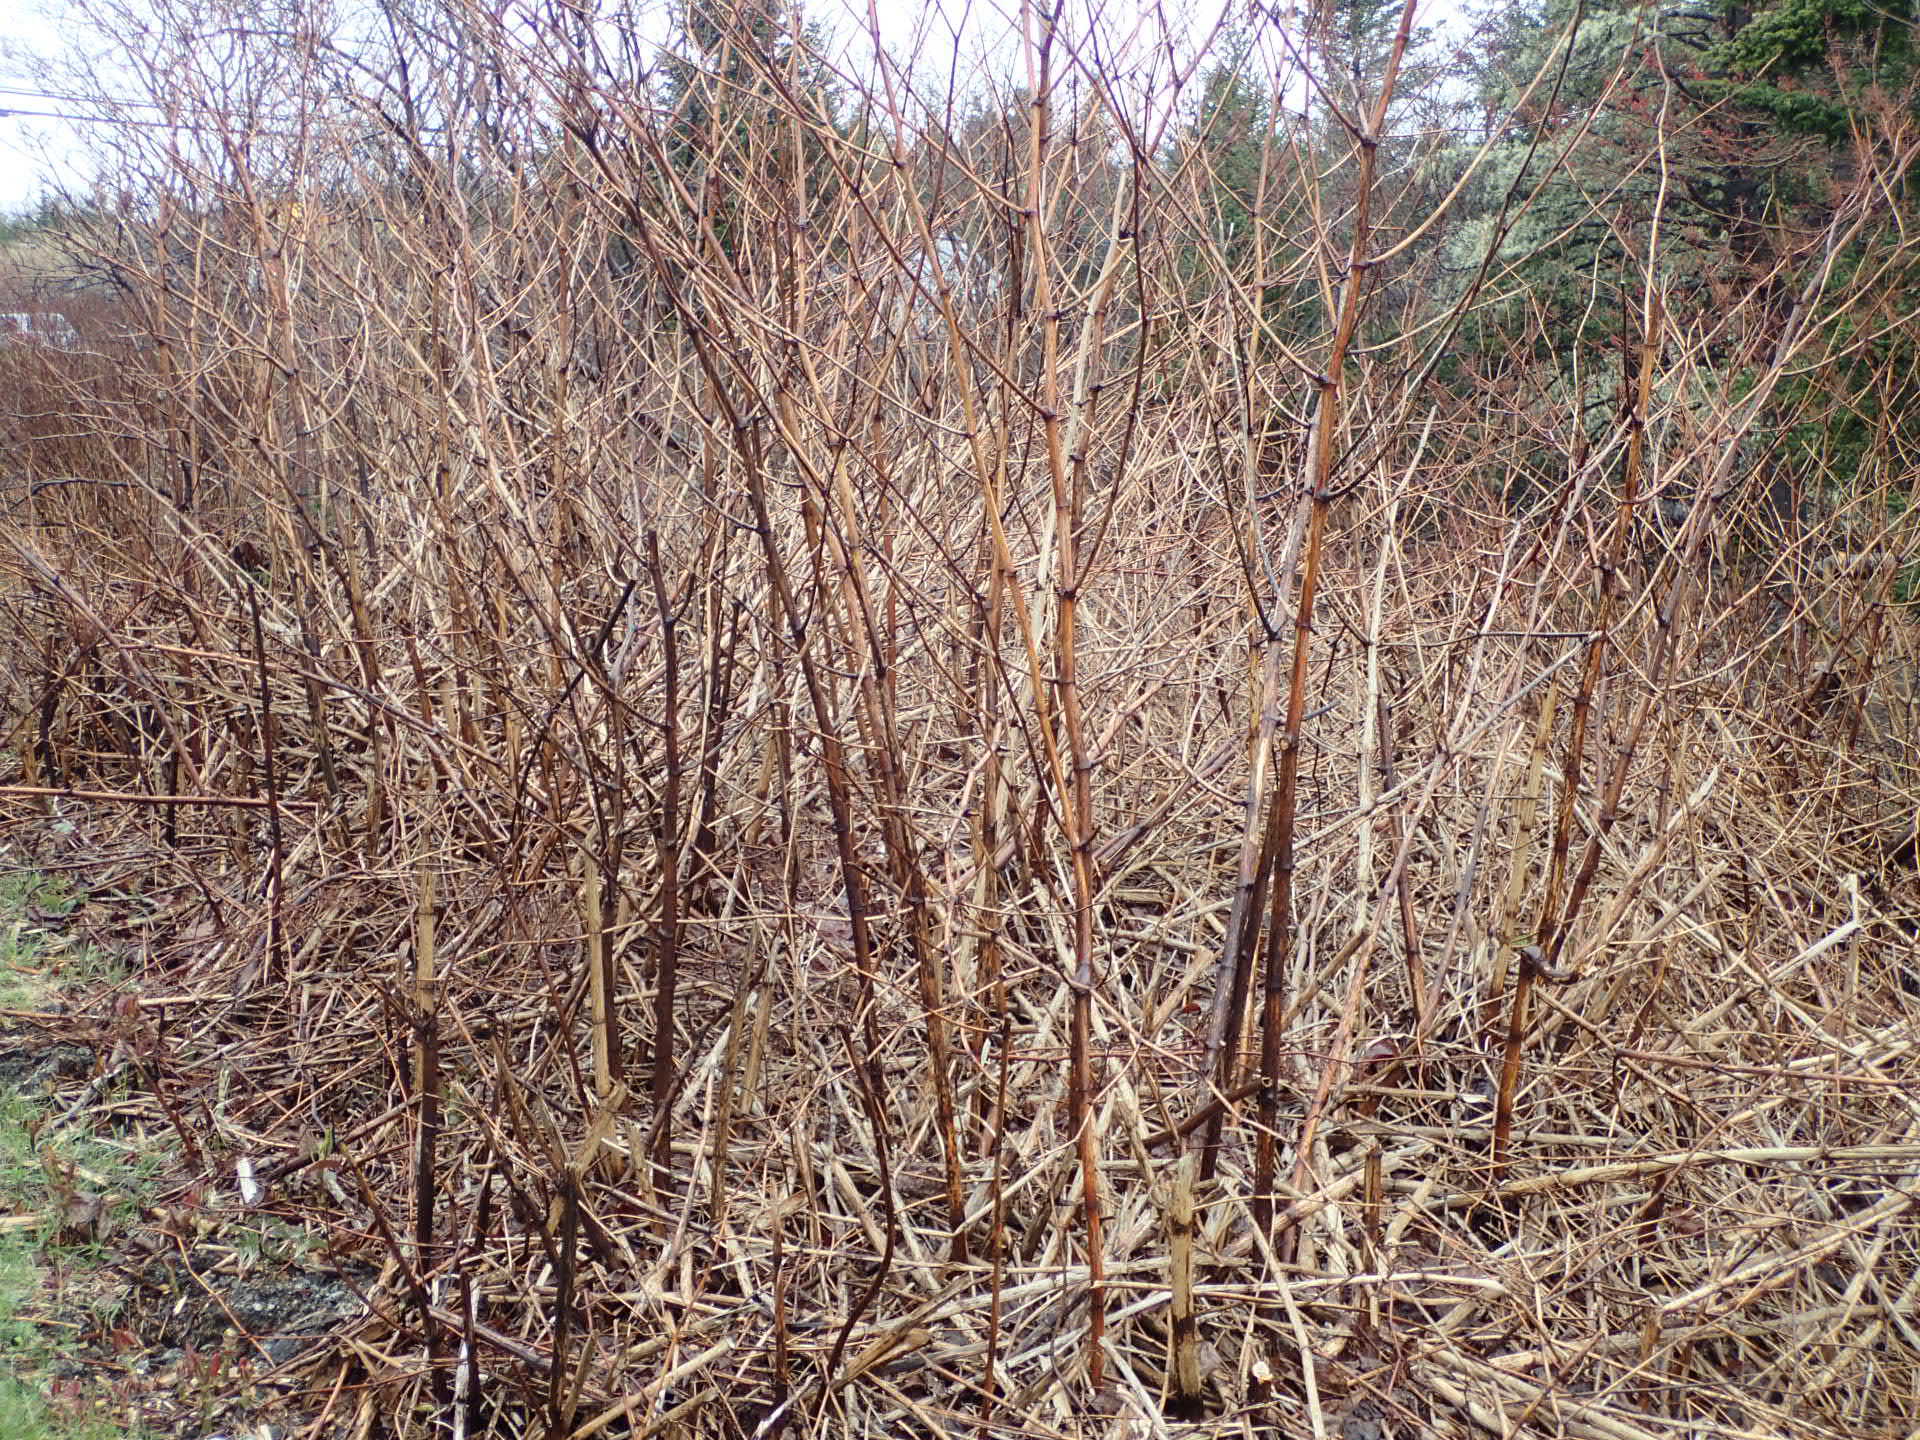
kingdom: Plantae
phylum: Tracheophyta
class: Magnoliopsida
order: Caryophyllales
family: Polygonaceae
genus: Reynoutria
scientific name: Reynoutria japonica
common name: Japanese knotweed
